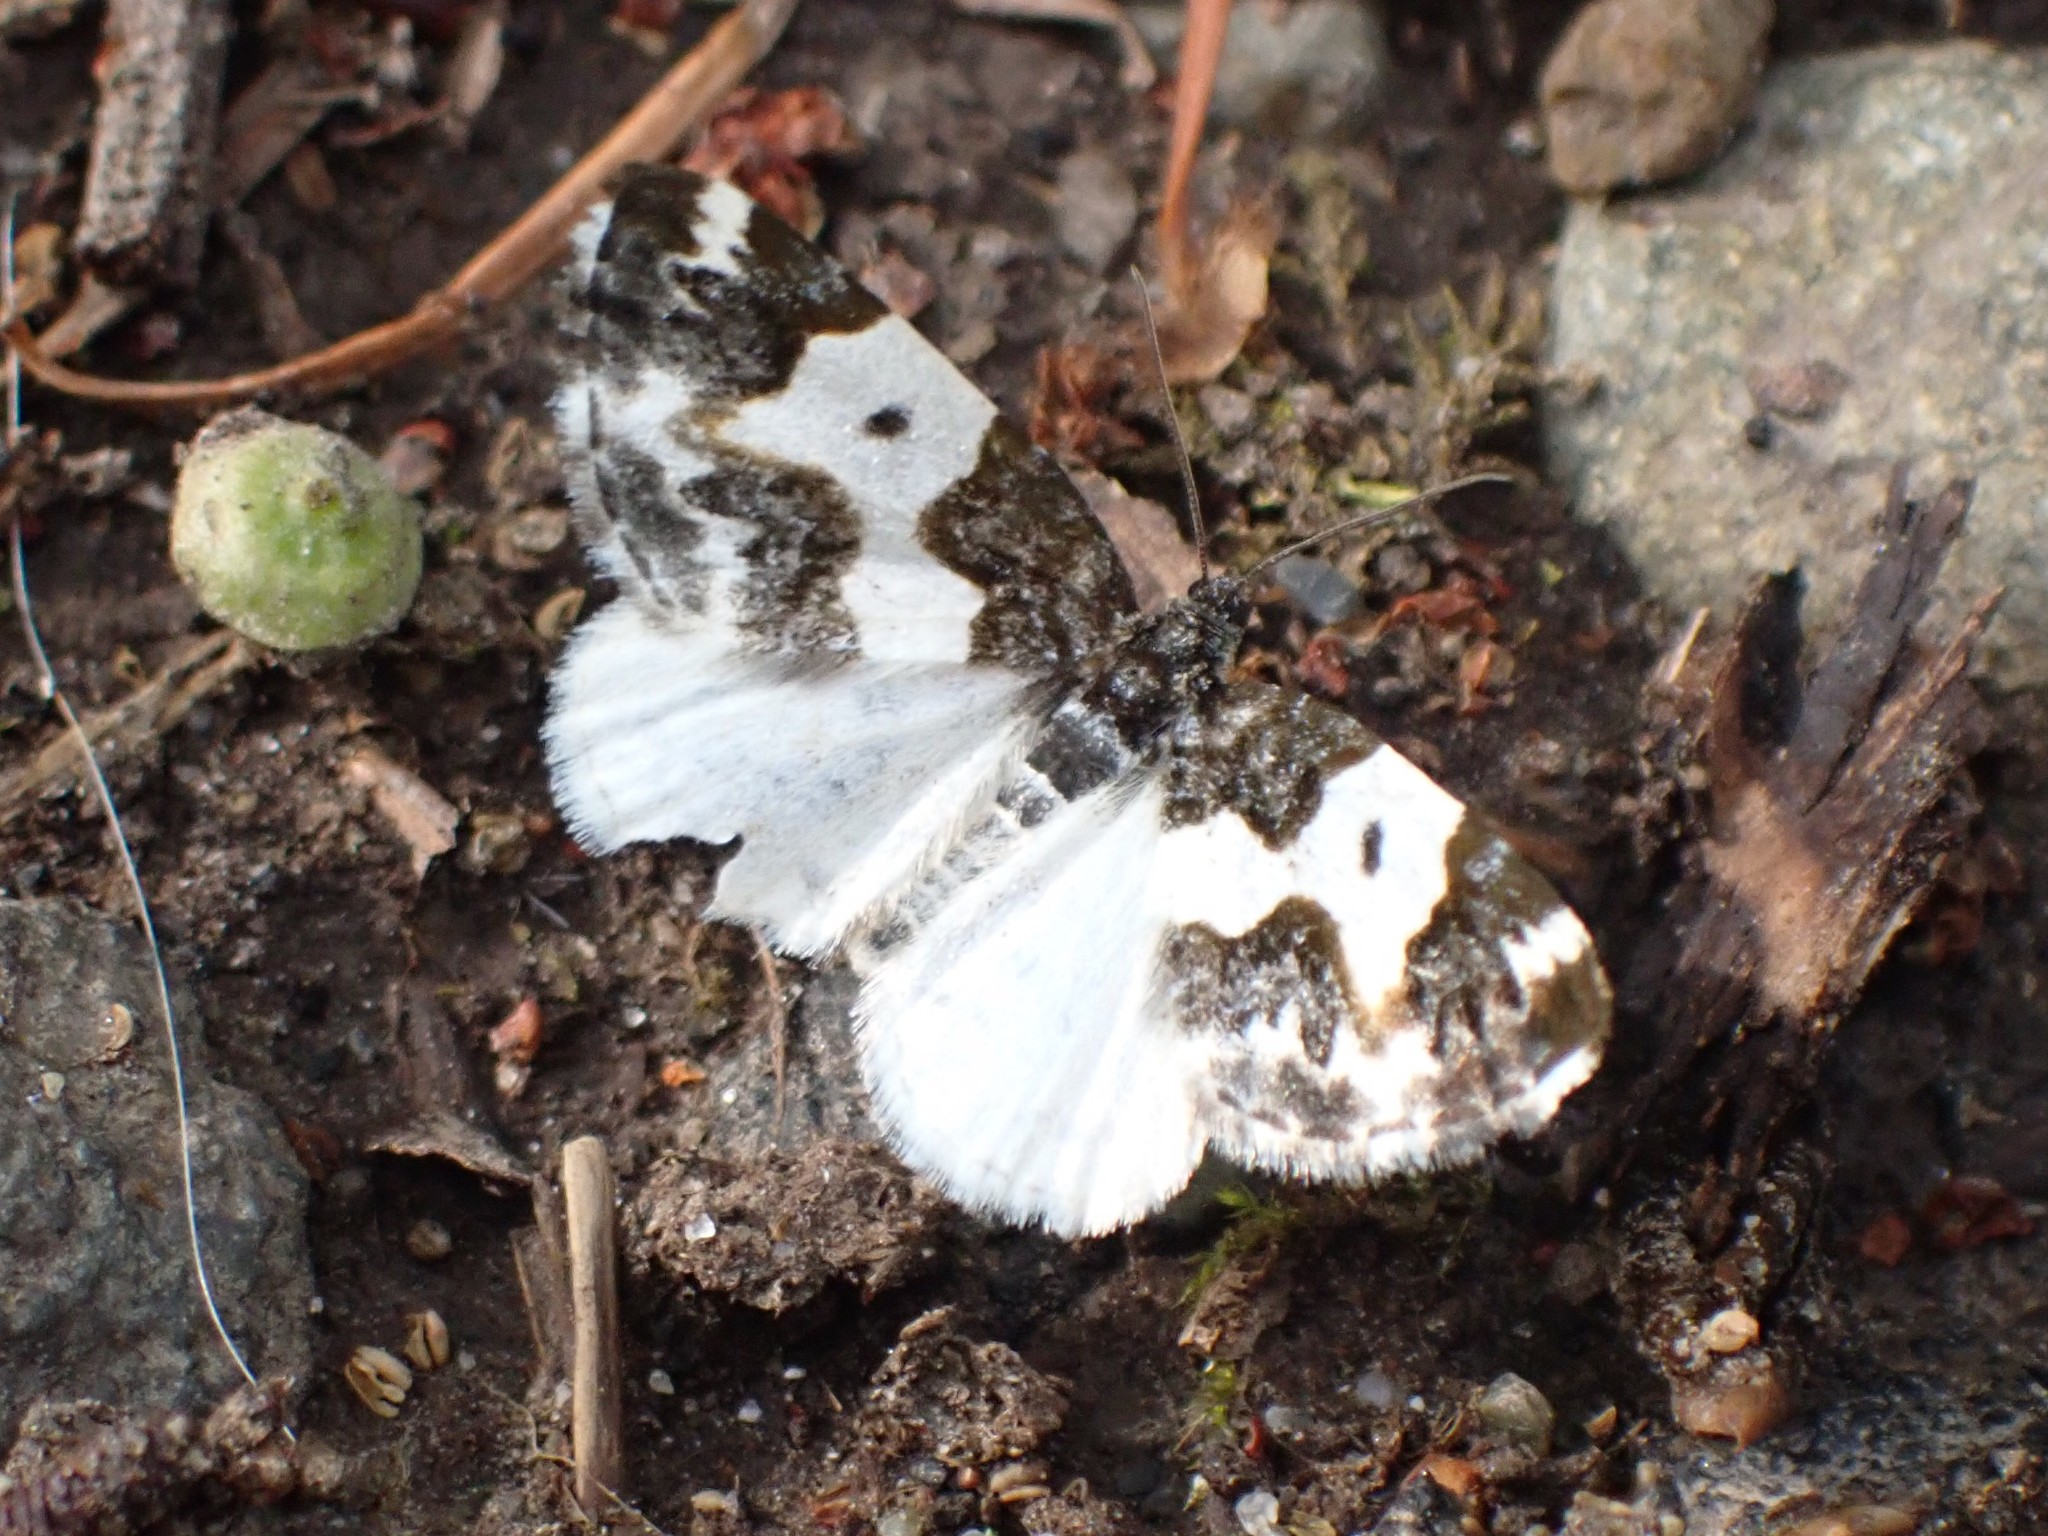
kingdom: Animalia
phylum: Arthropoda
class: Insecta
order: Lepidoptera
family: Geometridae
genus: Mesoleuca
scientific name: Mesoleuca gratulata
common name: Half-white carpet moth
